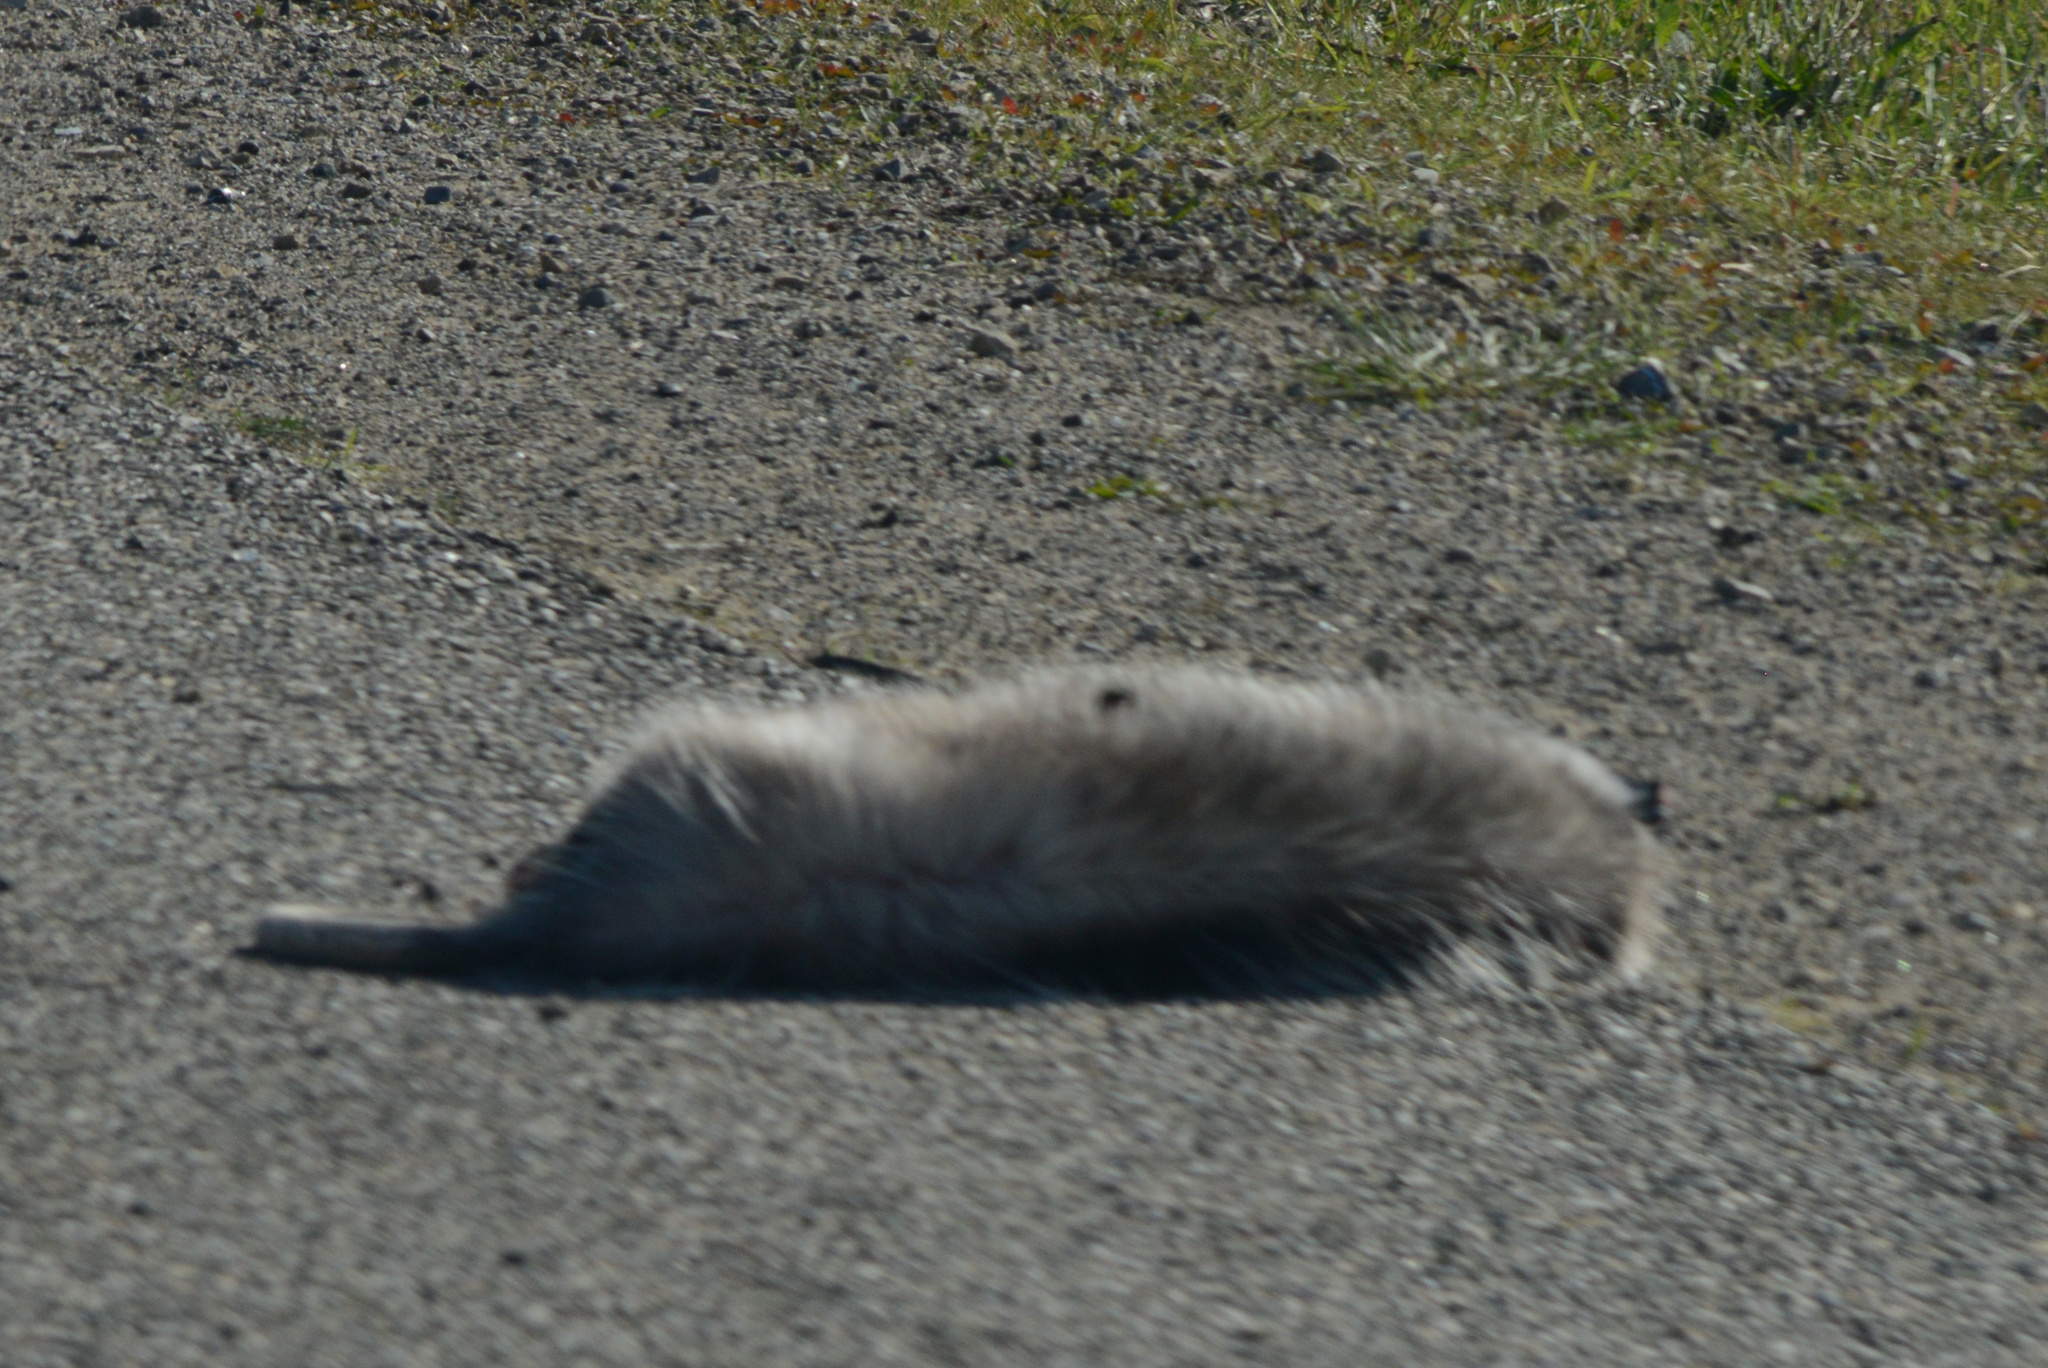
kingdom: Animalia
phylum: Chordata
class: Mammalia
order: Didelphimorphia
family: Didelphidae
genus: Didelphis
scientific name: Didelphis virginiana
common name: Virginia opossum
